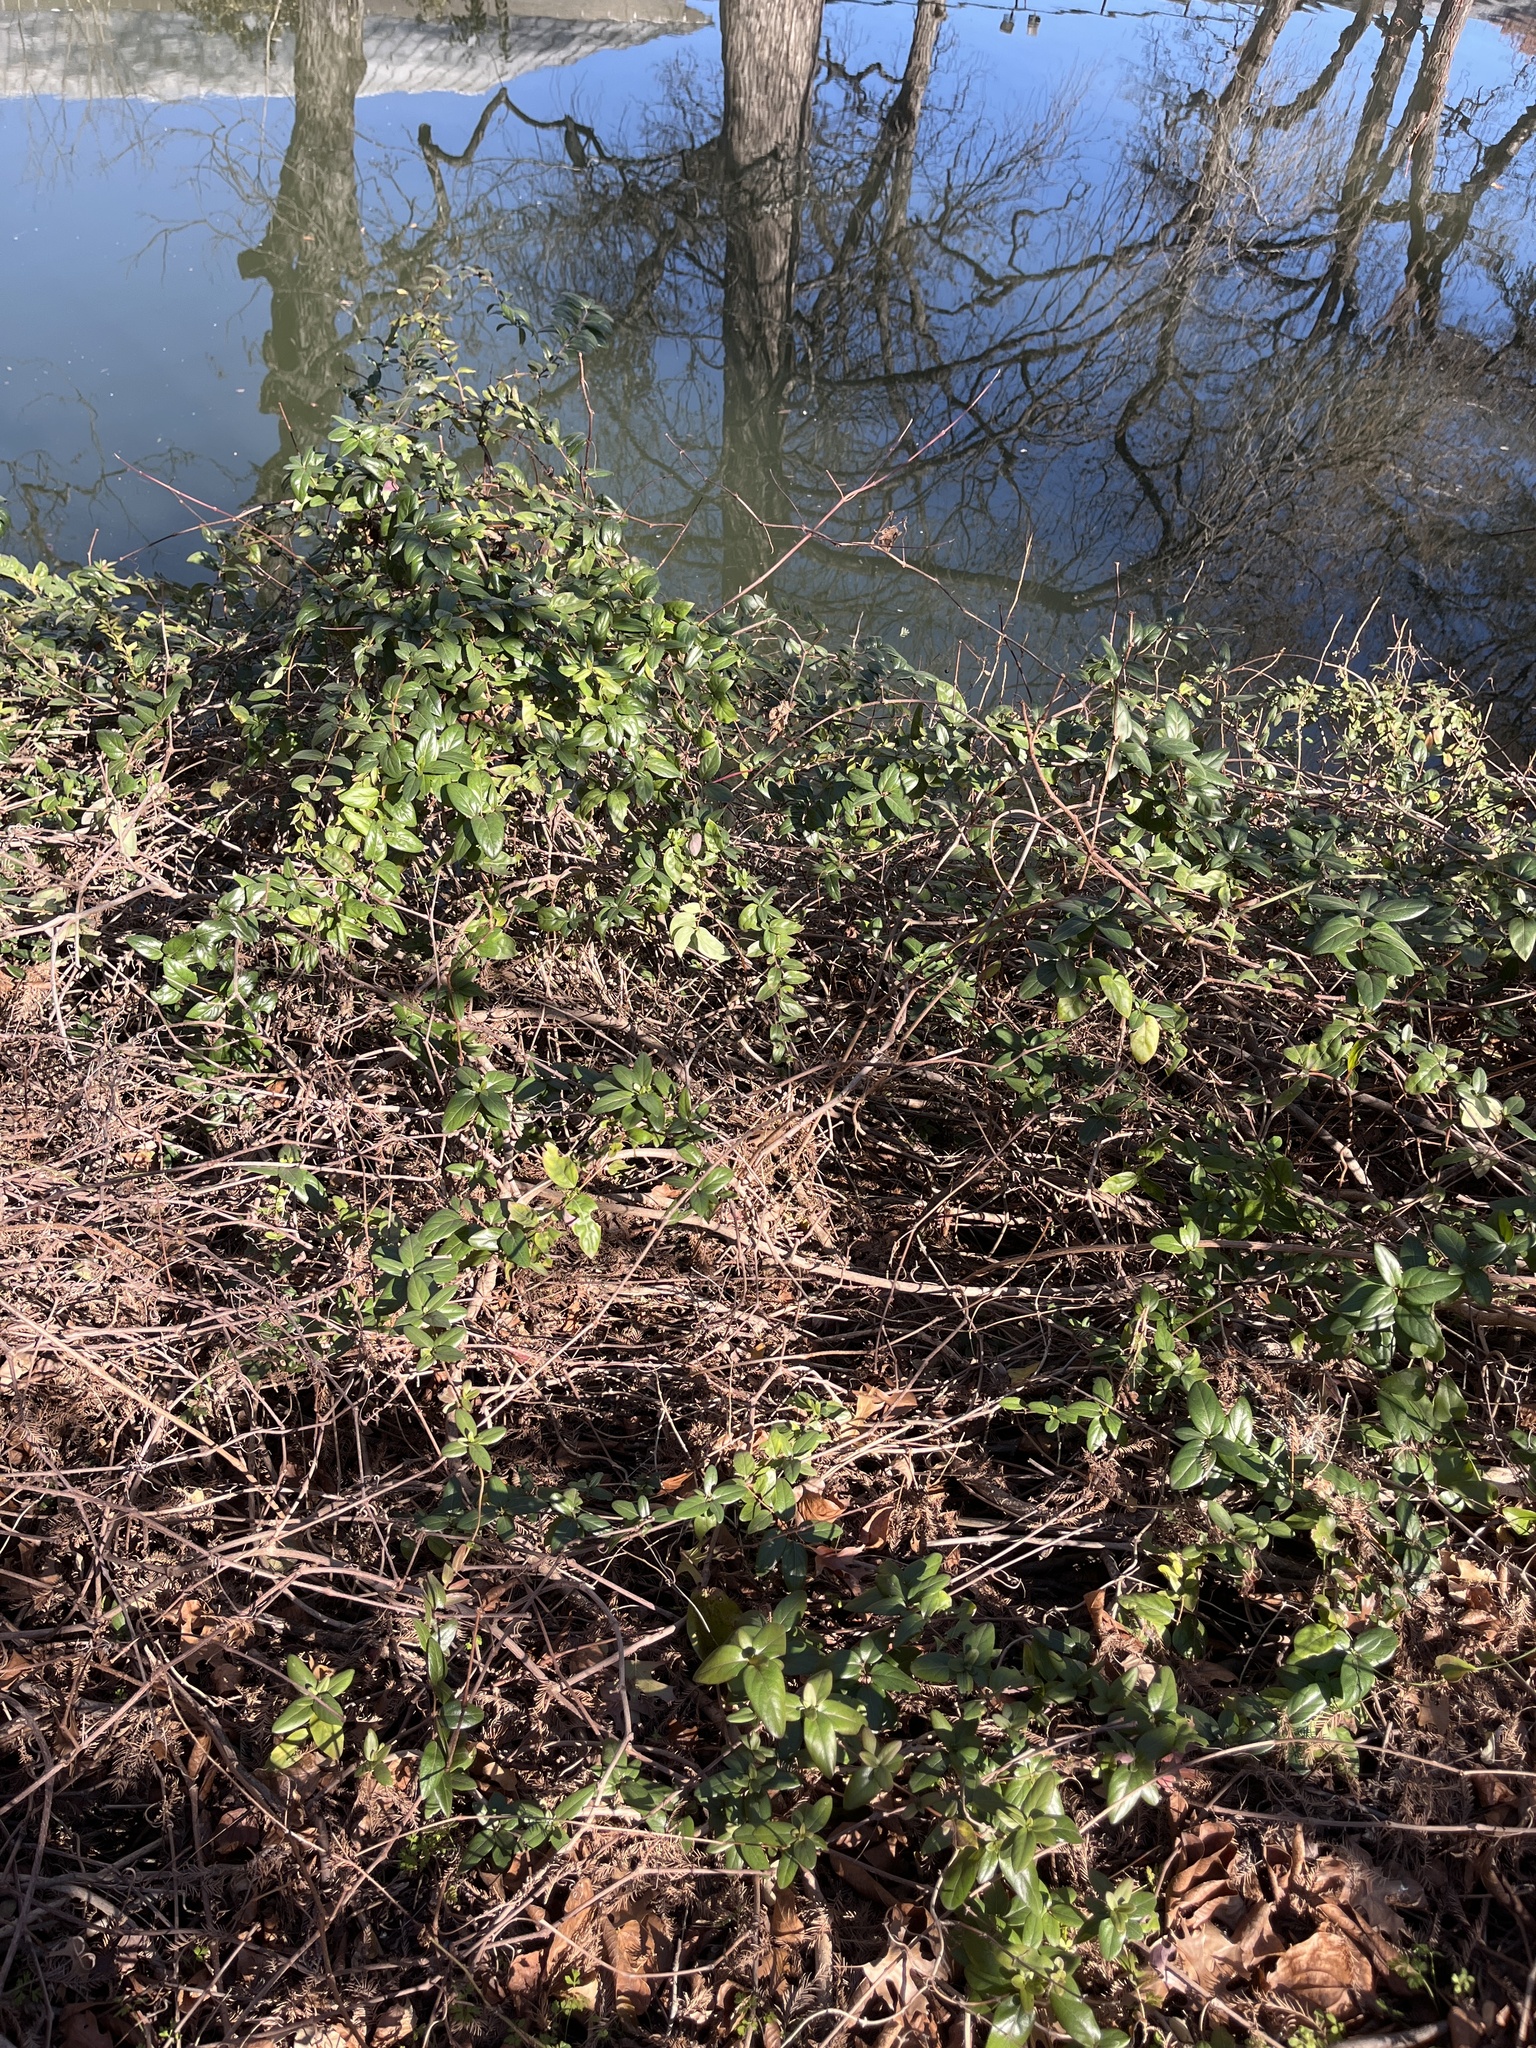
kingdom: Plantae
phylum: Tracheophyta
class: Magnoliopsida
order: Dipsacales
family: Caprifoliaceae
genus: Lonicera
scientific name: Lonicera japonica
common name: Japanese honeysuckle
